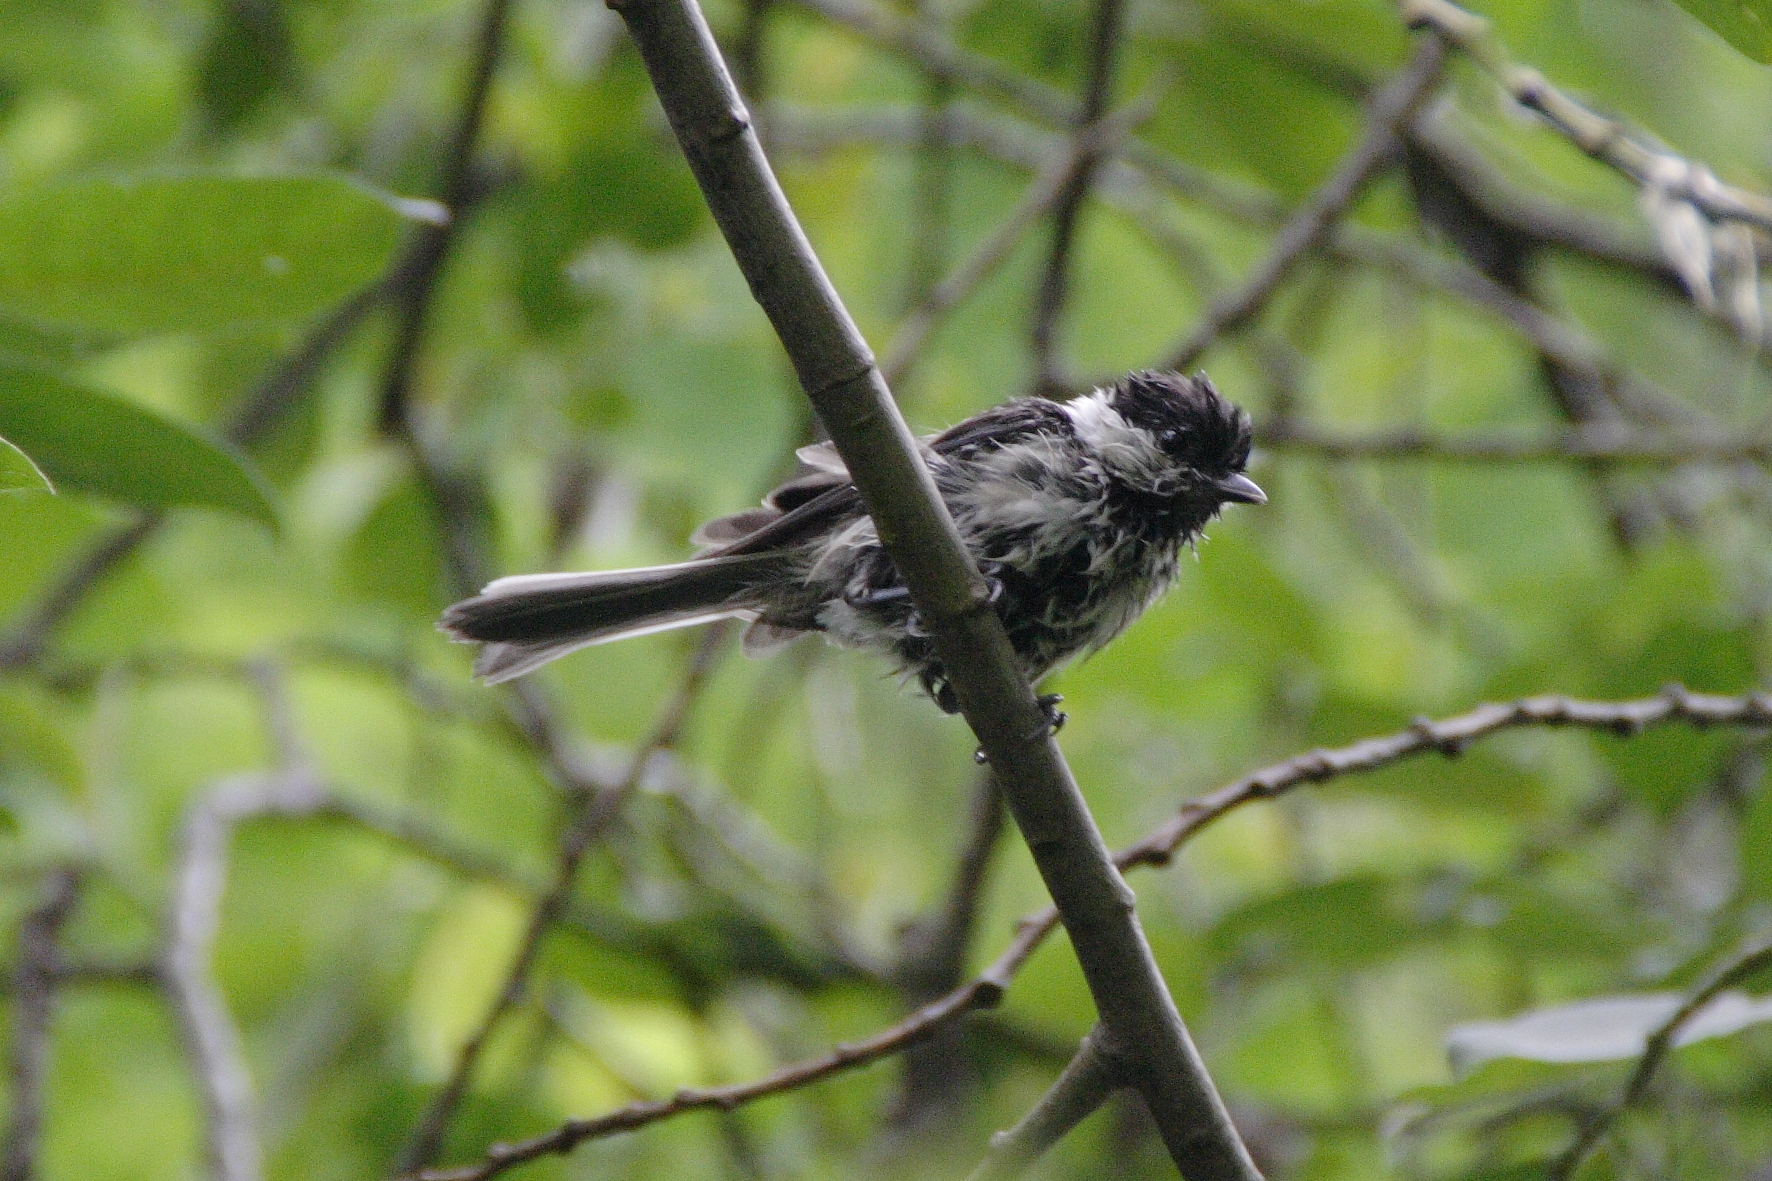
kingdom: Animalia
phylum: Chordata
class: Aves
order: Passeriformes
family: Paridae
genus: Poecile
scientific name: Poecile montanus
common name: Willow tit
